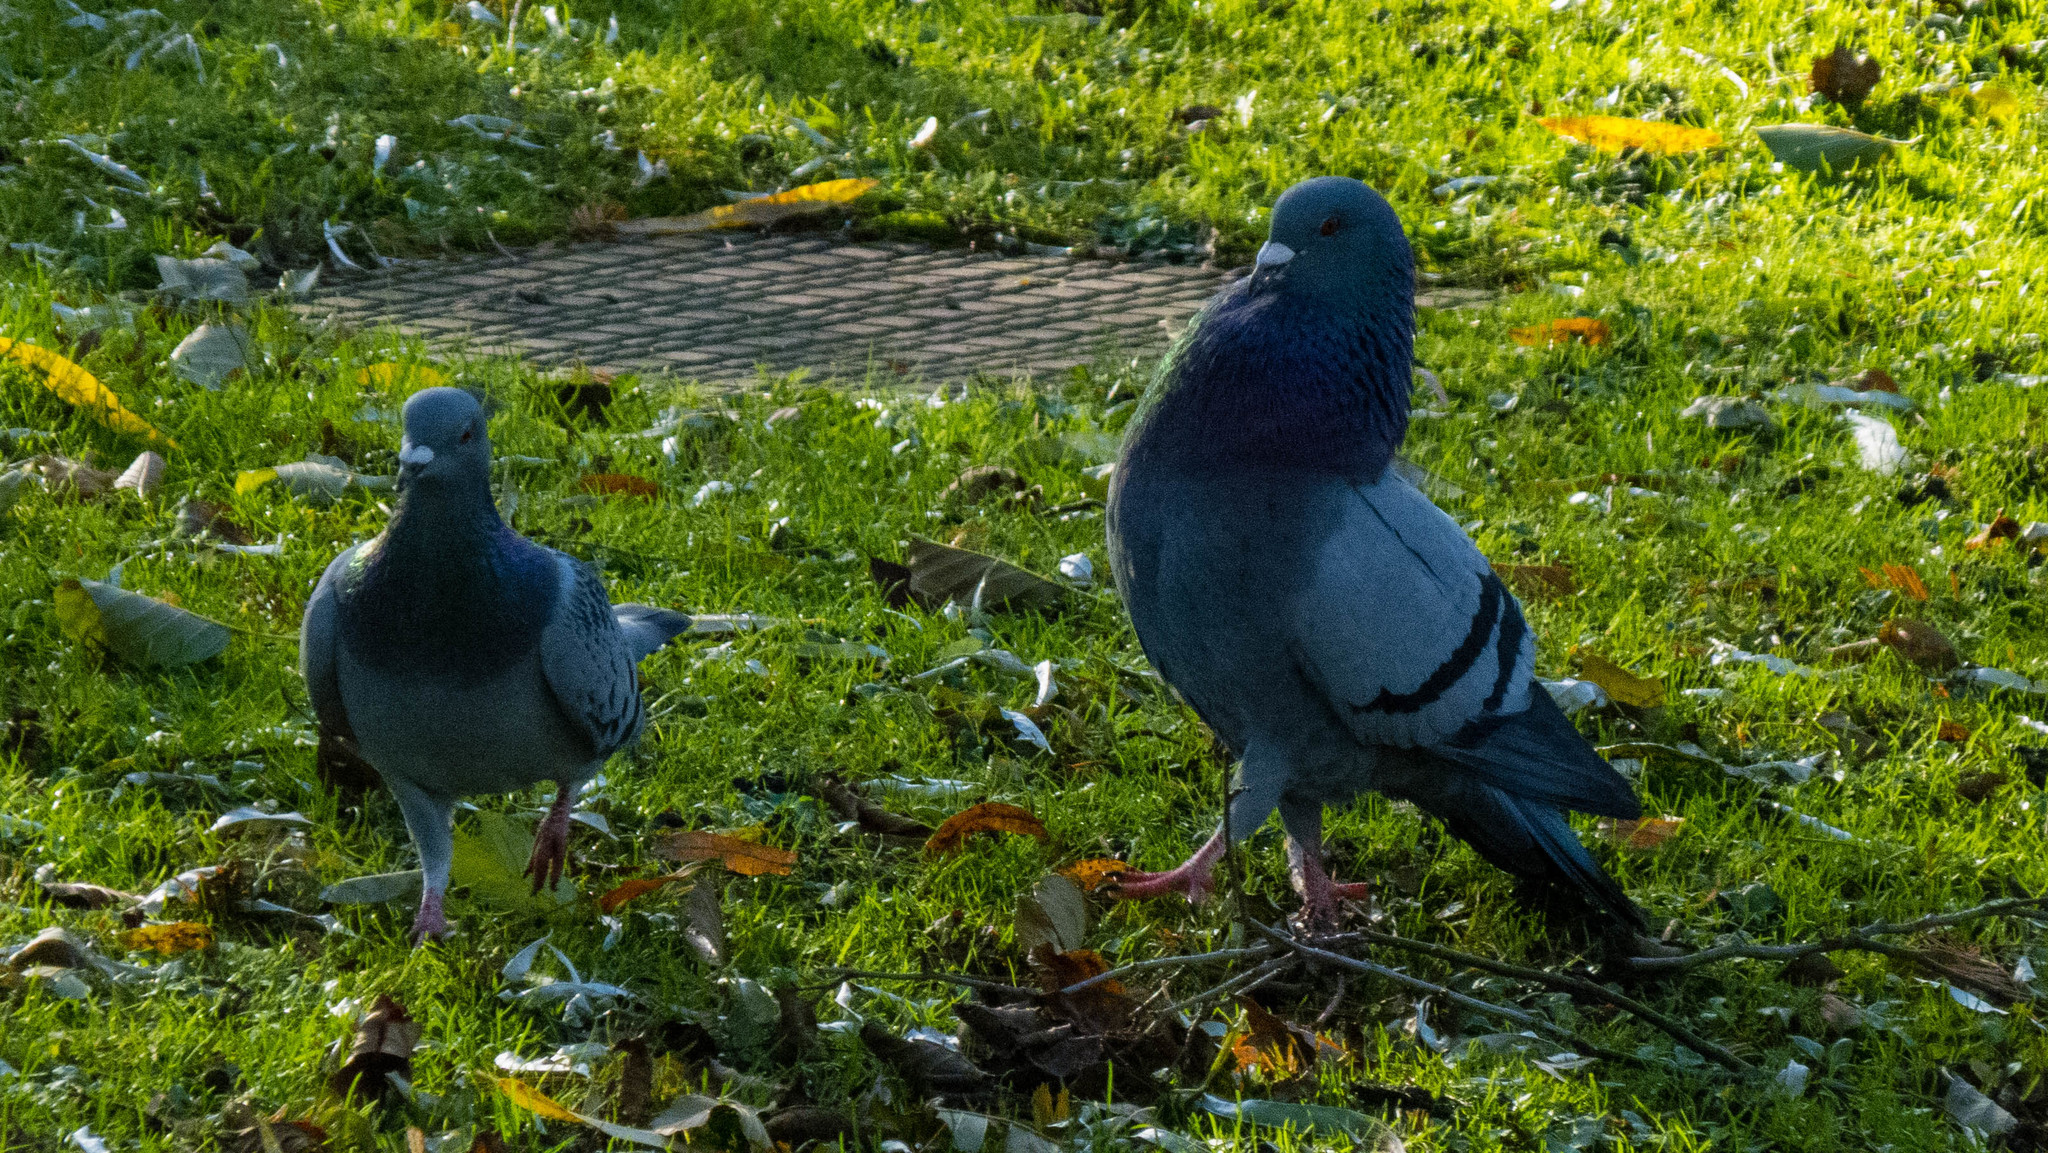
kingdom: Animalia
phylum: Chordata
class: Aves
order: Columbiformes
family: Columbidae
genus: Columba
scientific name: Columba livia
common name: Rock pigeon
